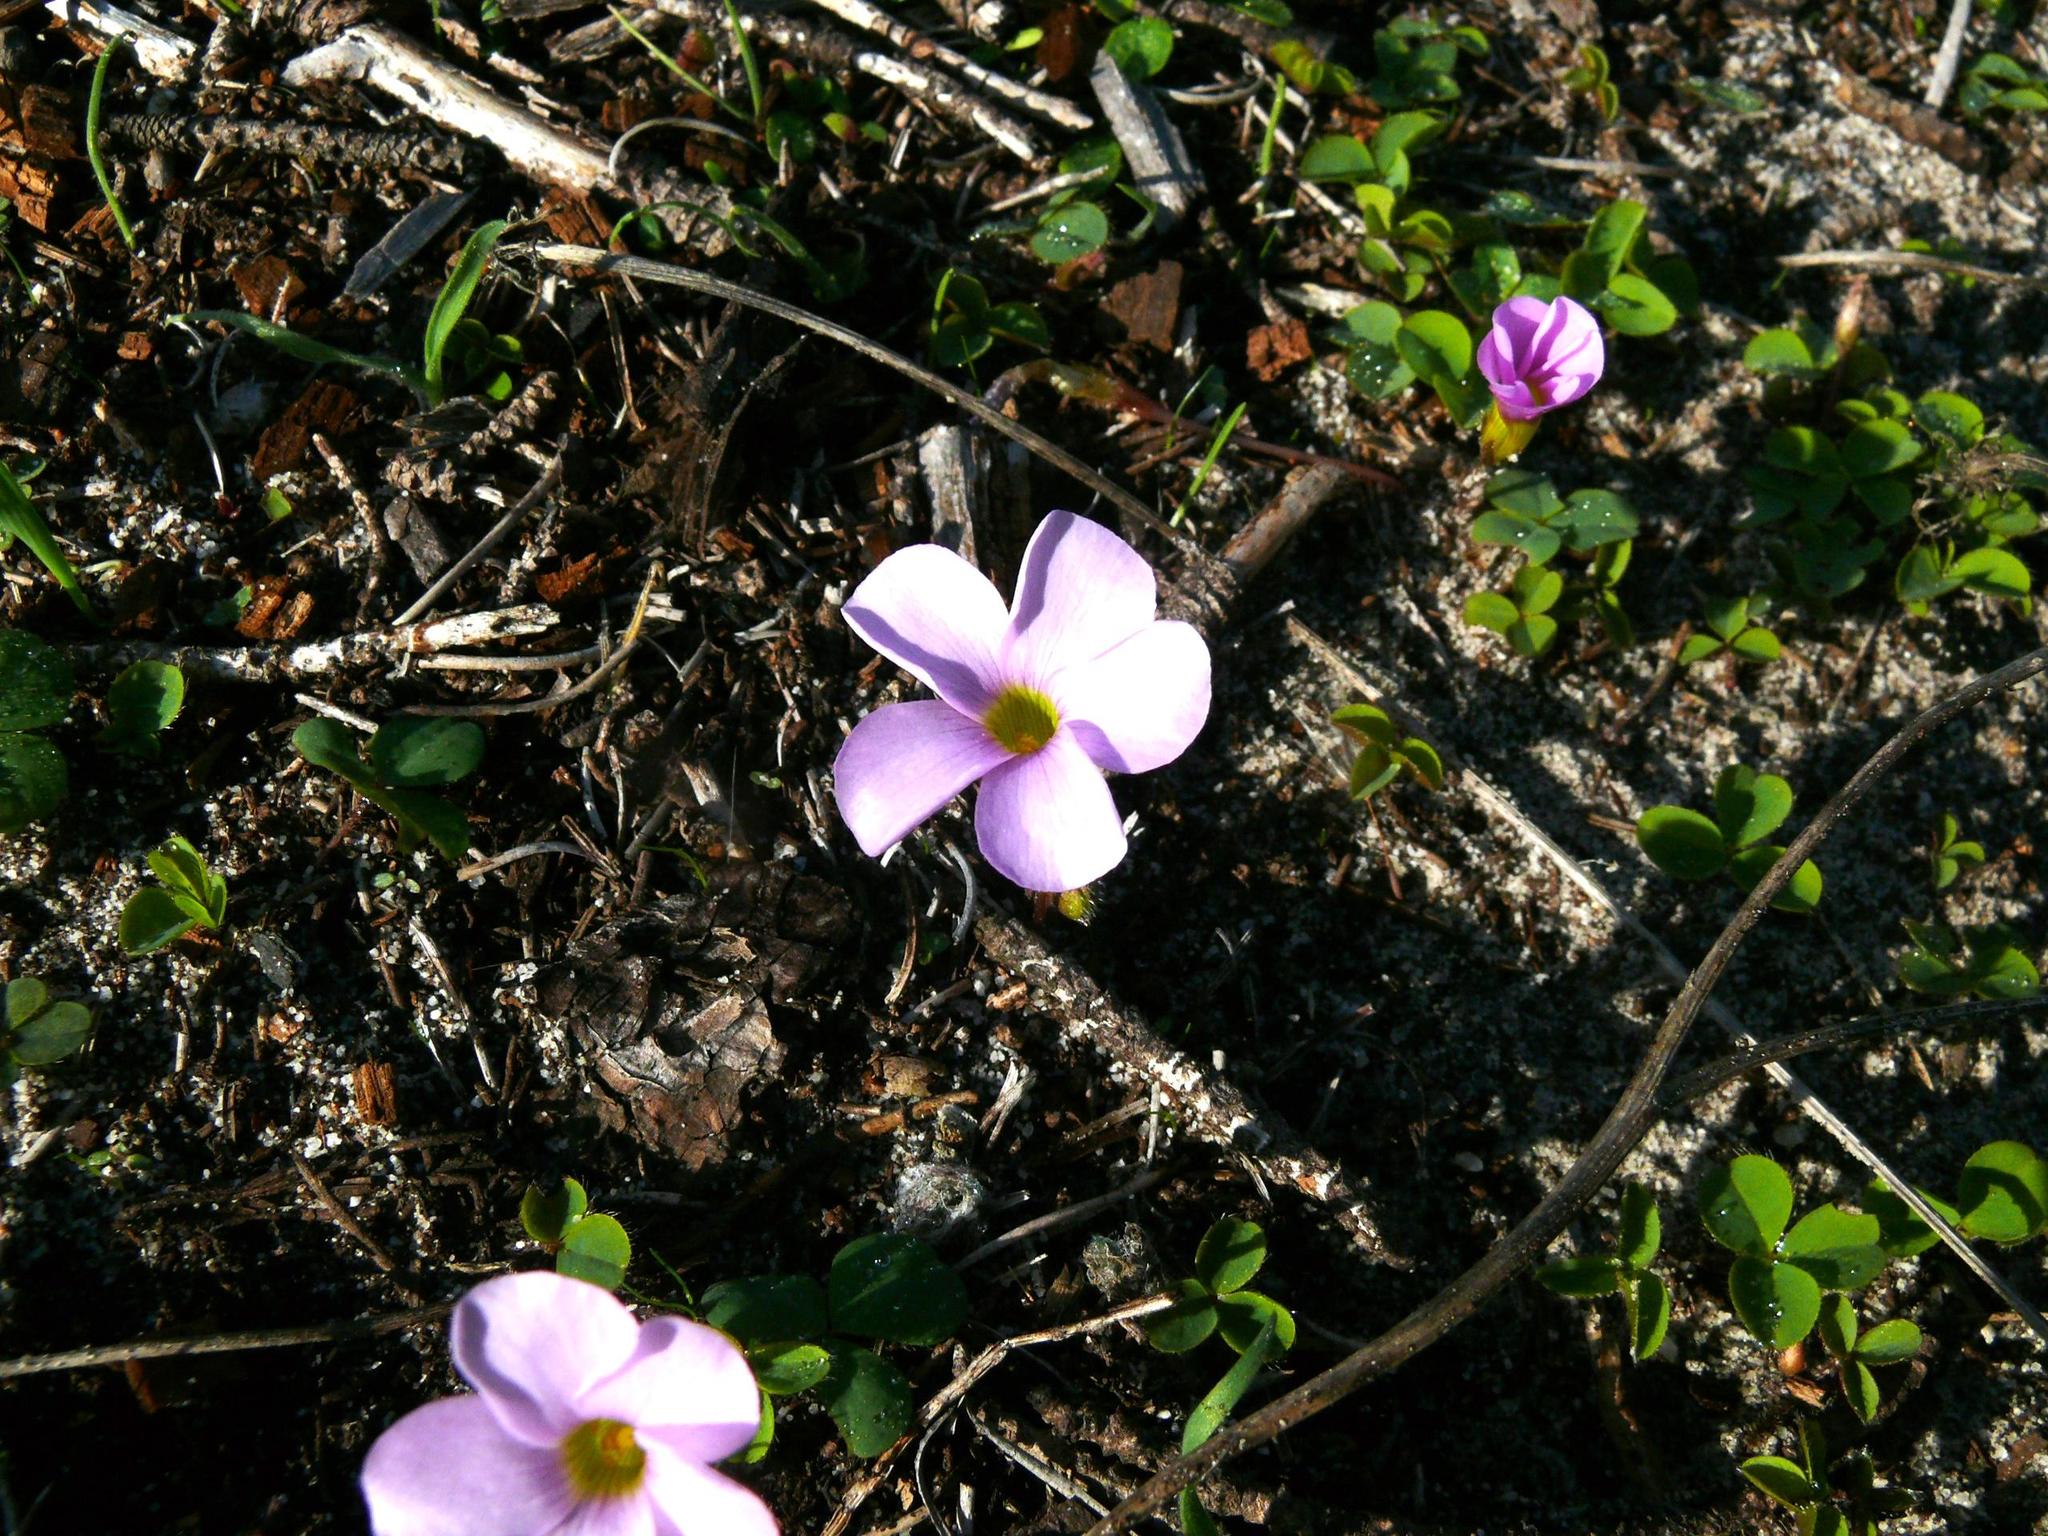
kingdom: Plantae
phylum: Tracheophyta
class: Magnoliopsida
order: Oxalidales
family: Oxalidaceae
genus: Oxalis
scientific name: Oxalis nidulans
